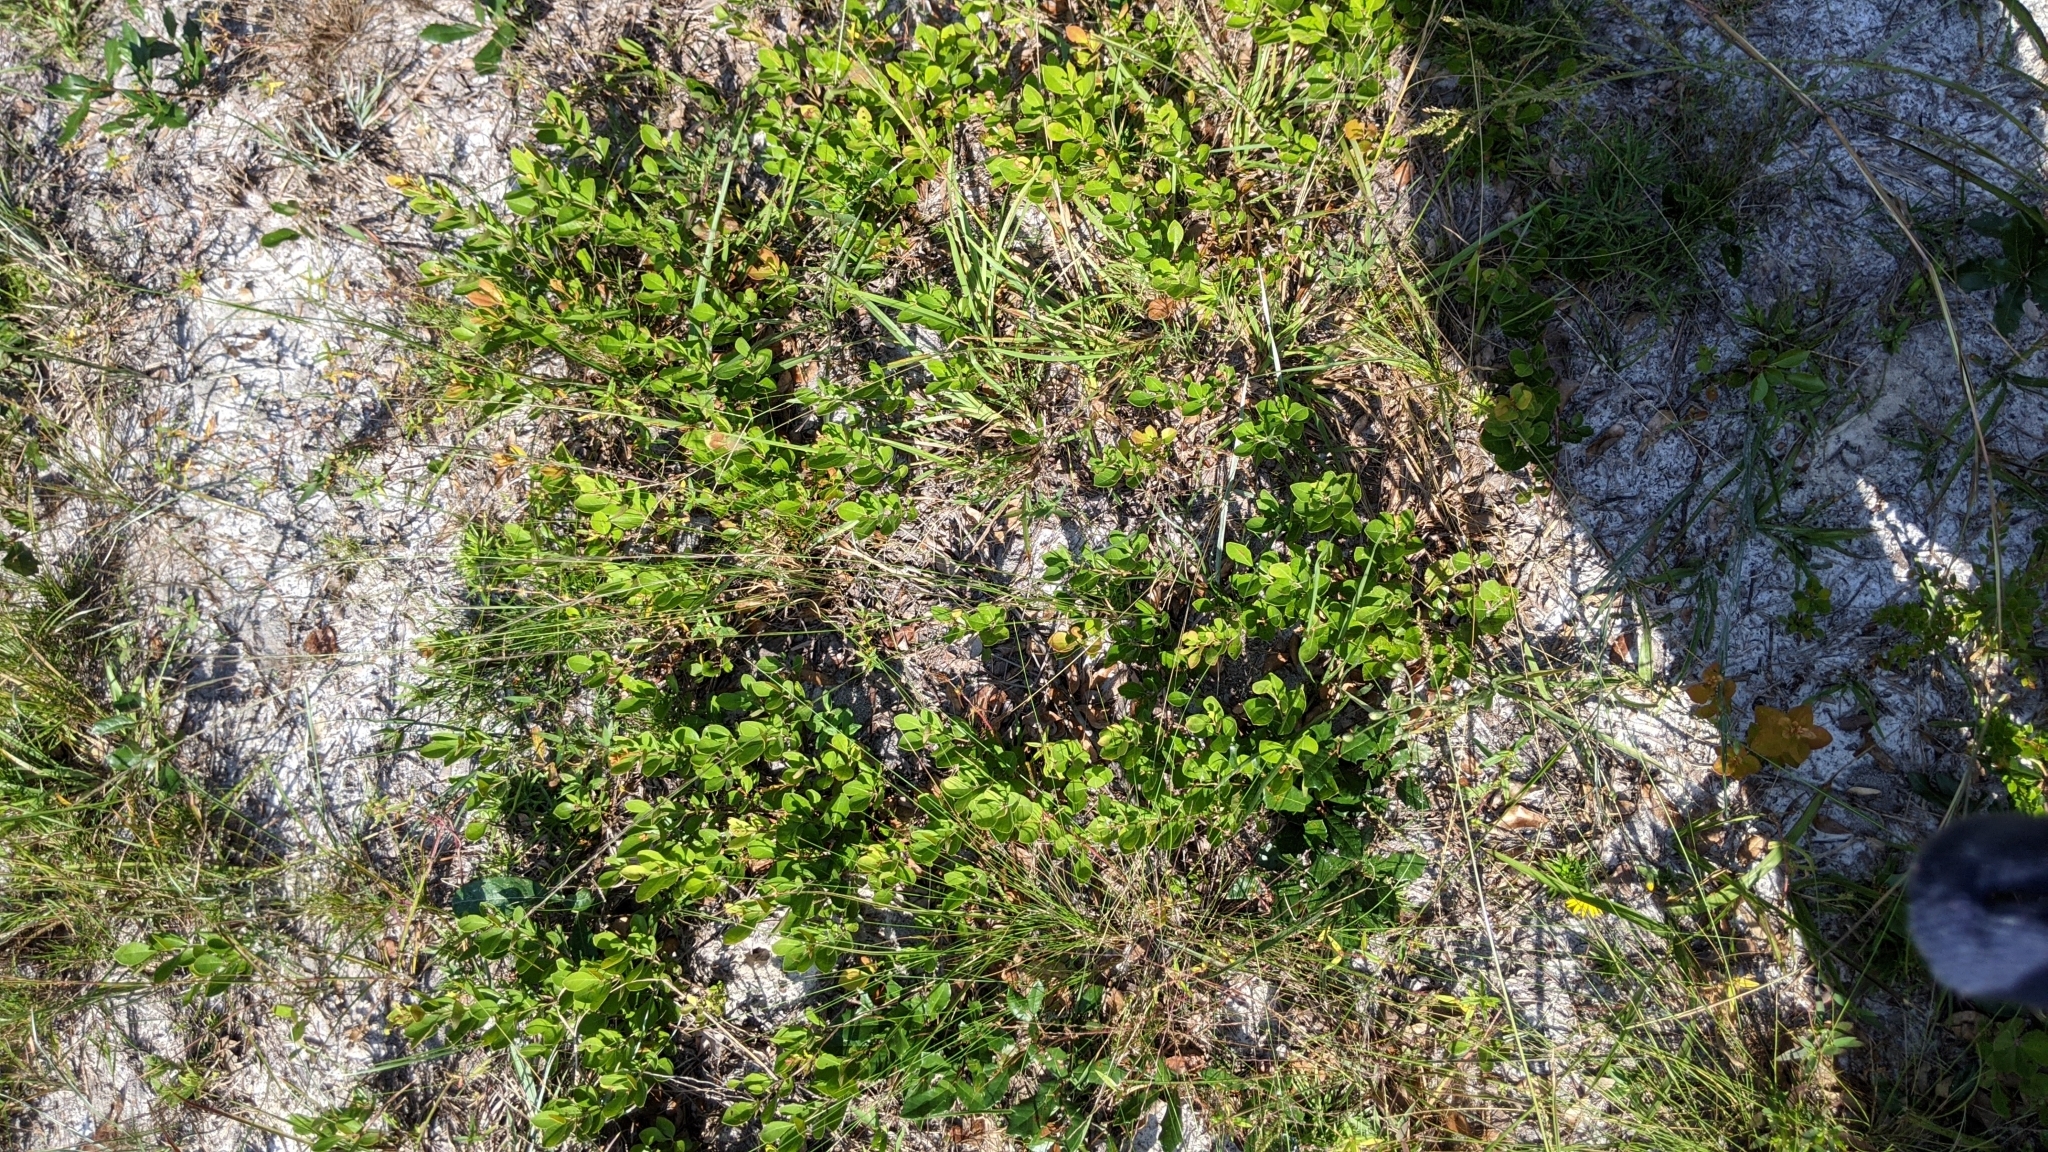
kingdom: Plantae
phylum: Tracheophyta
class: Magnoliopsida
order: Ericales
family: Ericaceae
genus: Lyonia
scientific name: Lyonia fruticosa
